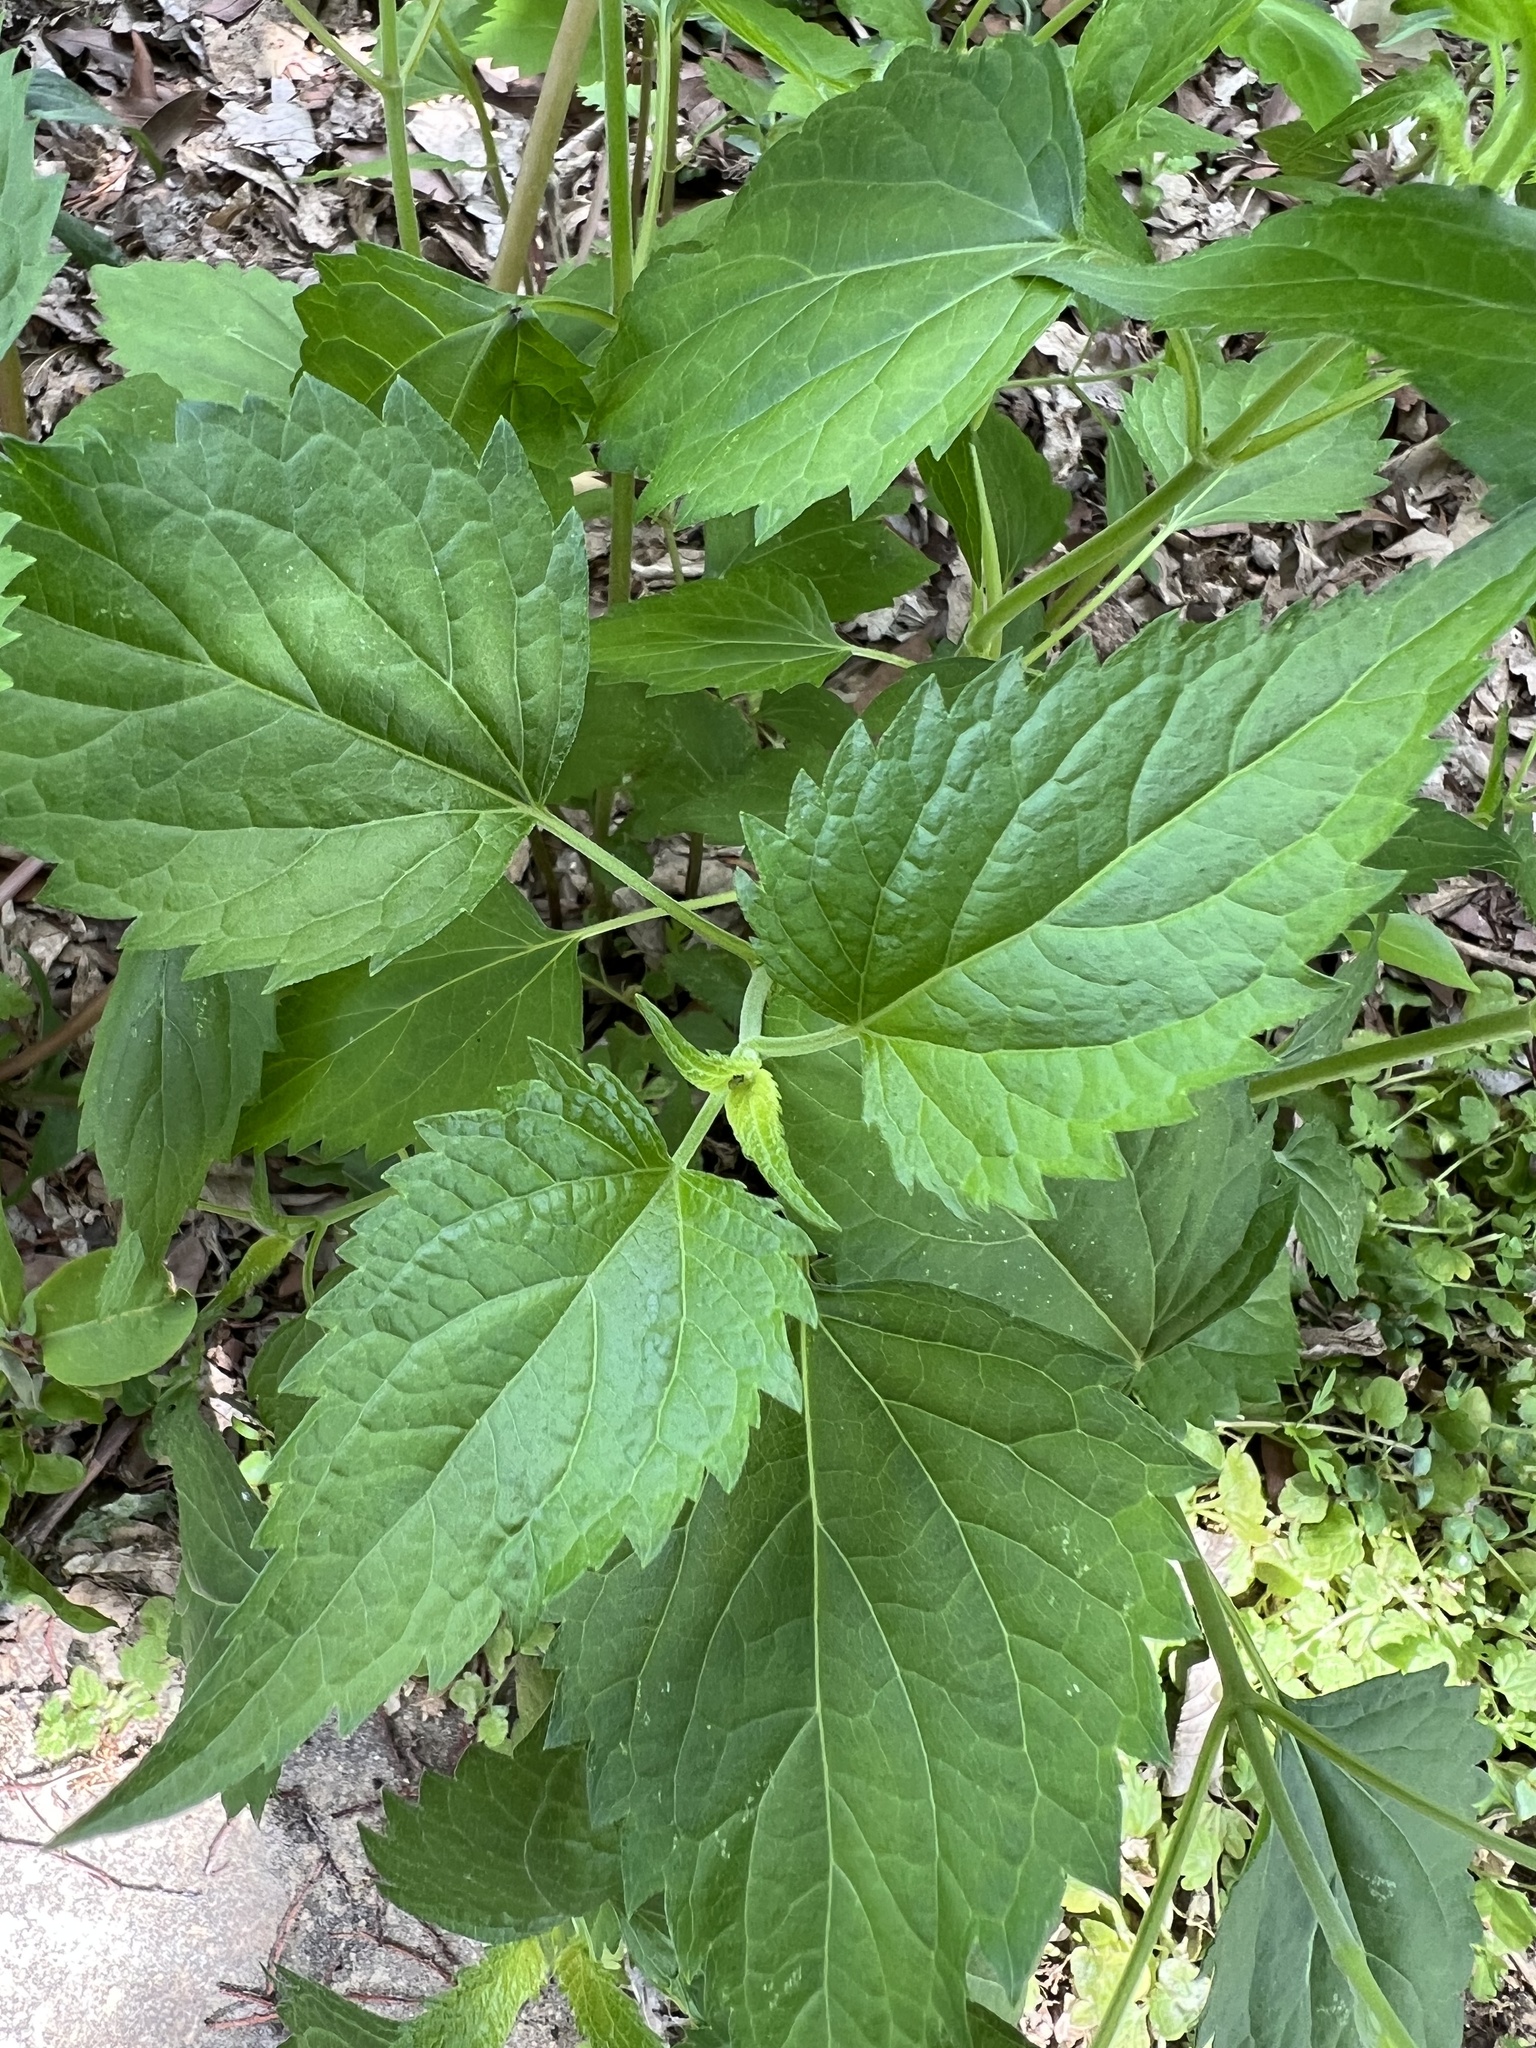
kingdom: Plantae
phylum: Tracheophyta
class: Magnoliopsida
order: Asterales
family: Asteraceae
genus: Ageratina
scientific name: Ageratina altissima
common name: White snakeroot
